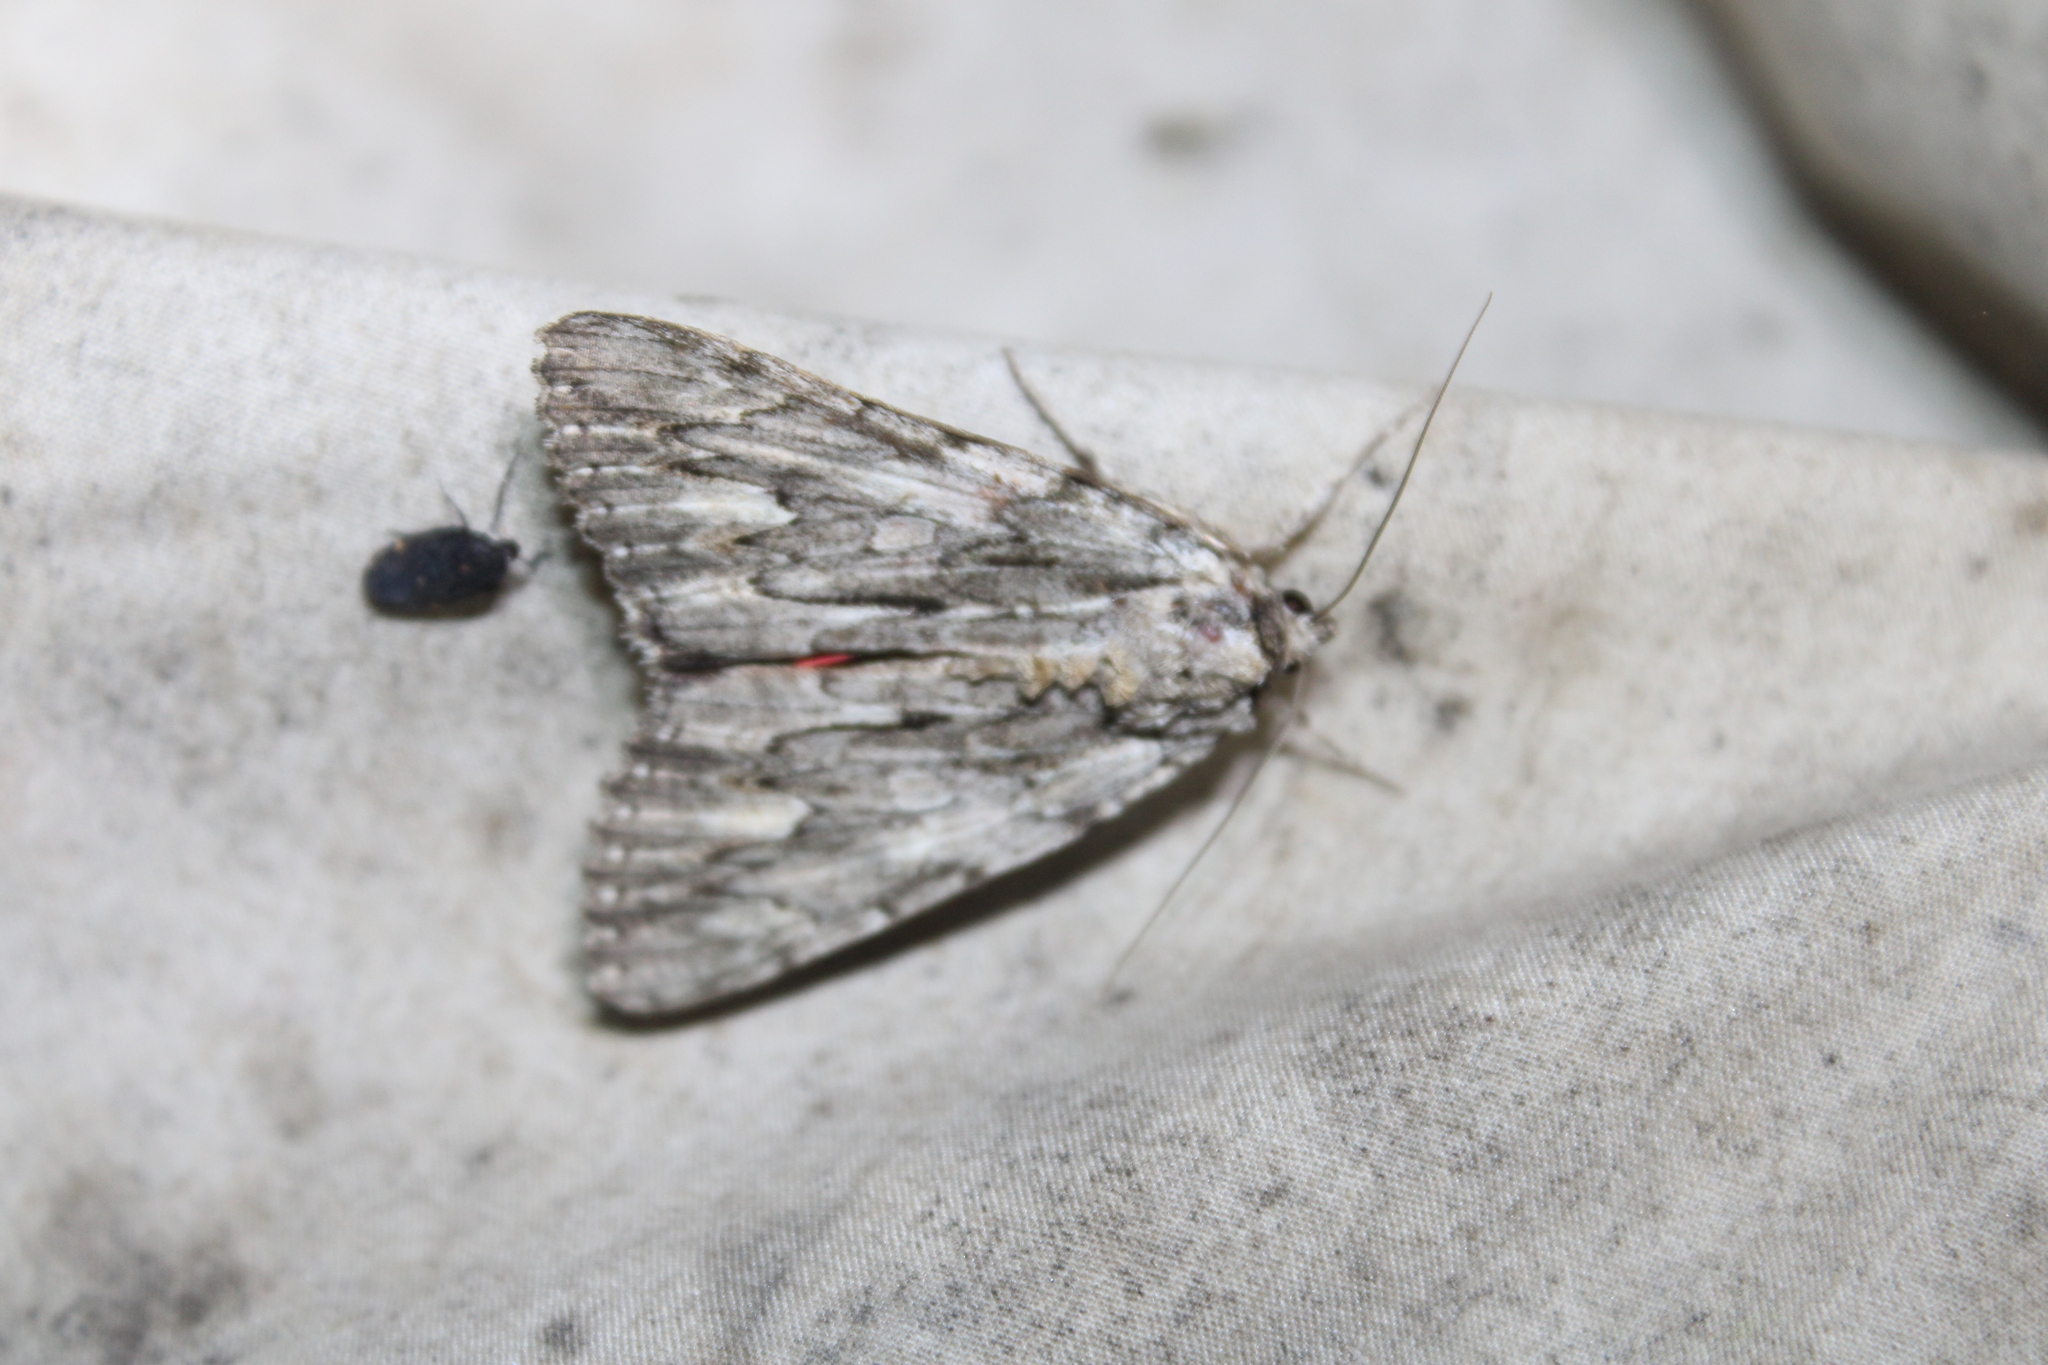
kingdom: Animalia
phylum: Arthropoda
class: Insecta
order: Lepidoptera
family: Erebidae
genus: Catocala
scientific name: Catocala coccinata
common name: Scarlet underwing
